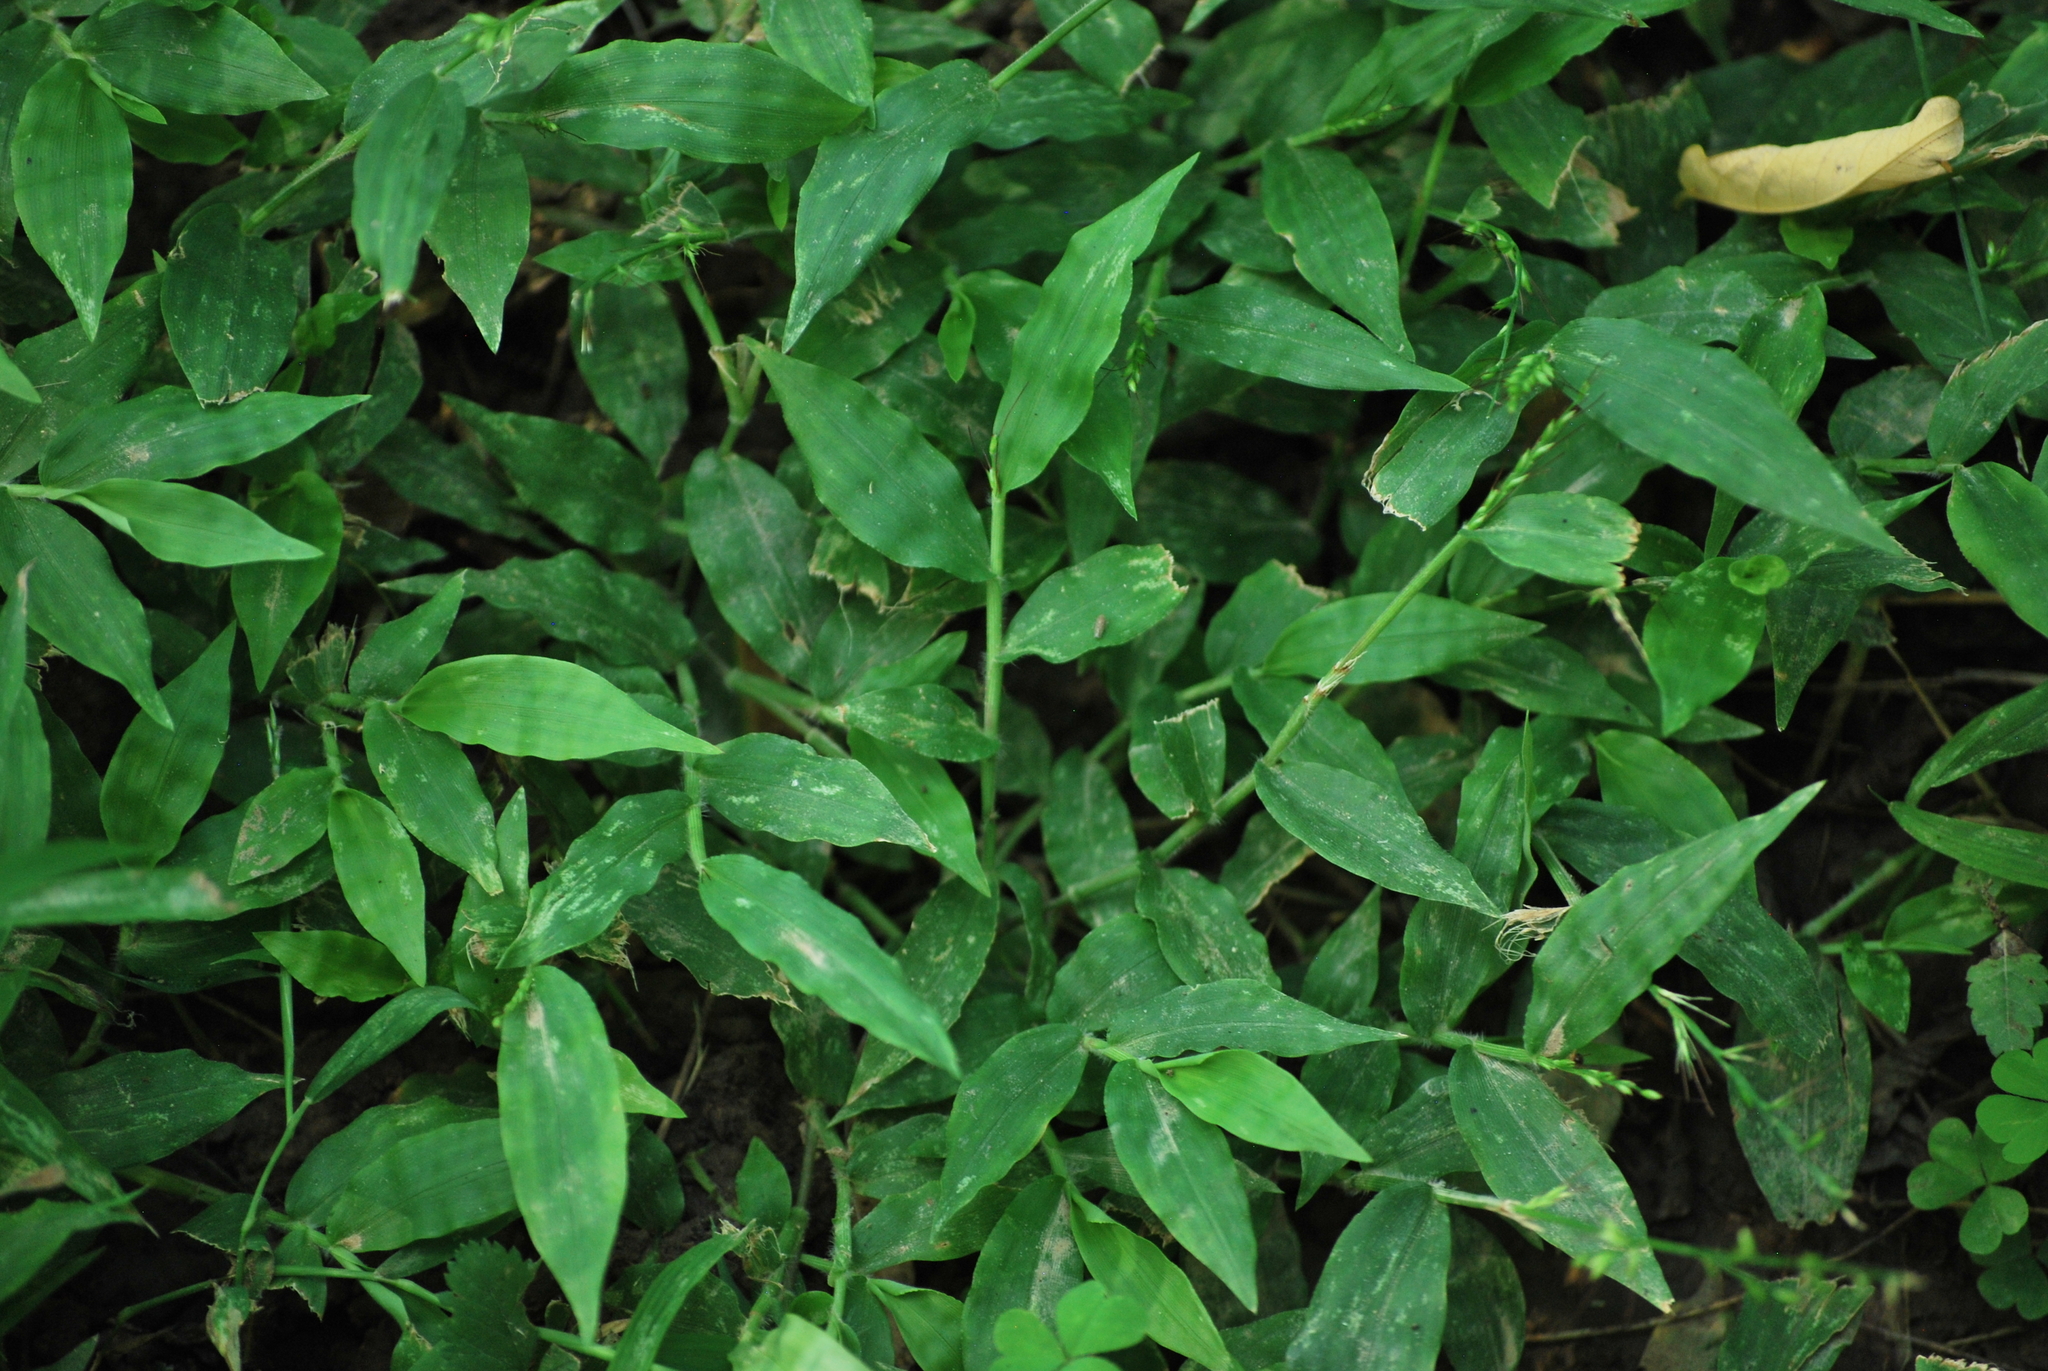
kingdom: Plantae
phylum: Tracheophyta
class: Liliopsida
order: Poales
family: Poaceae
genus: Oplismenus
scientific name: Oplismenus undulatifolius
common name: Wavyleaf basketgrass
